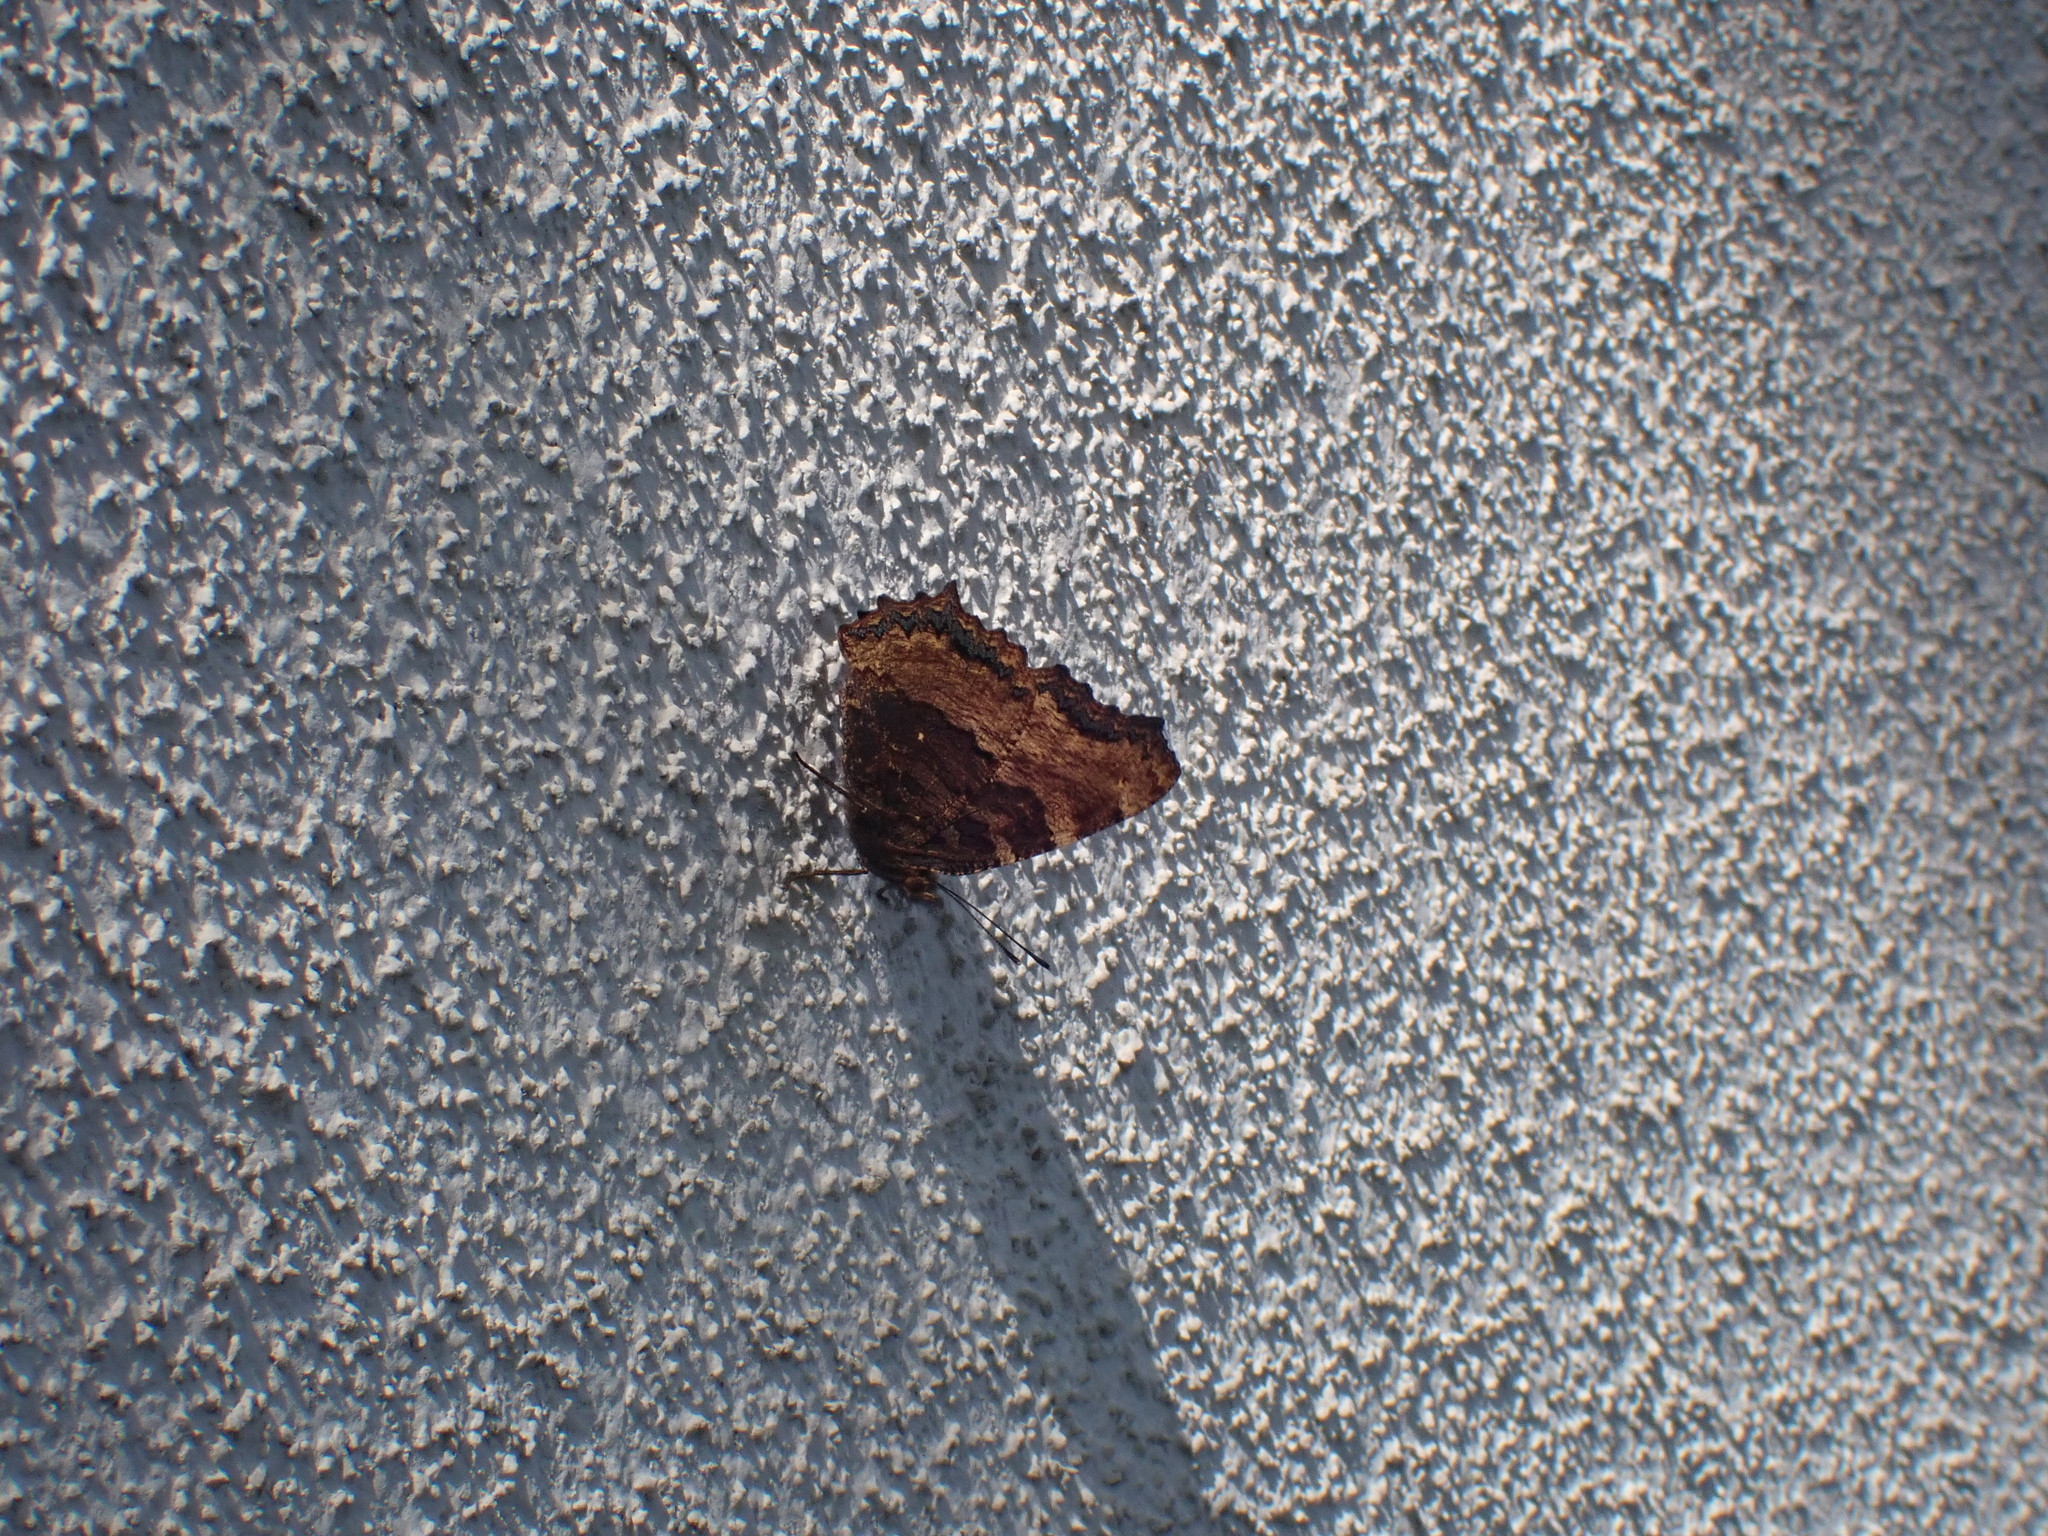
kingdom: Animalia
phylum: Arthropoda
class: Insecta
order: Lepidoptera
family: Nymphalidae
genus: Nymphalis
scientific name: Nymphalis polychloros
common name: Large tortoiseshell
